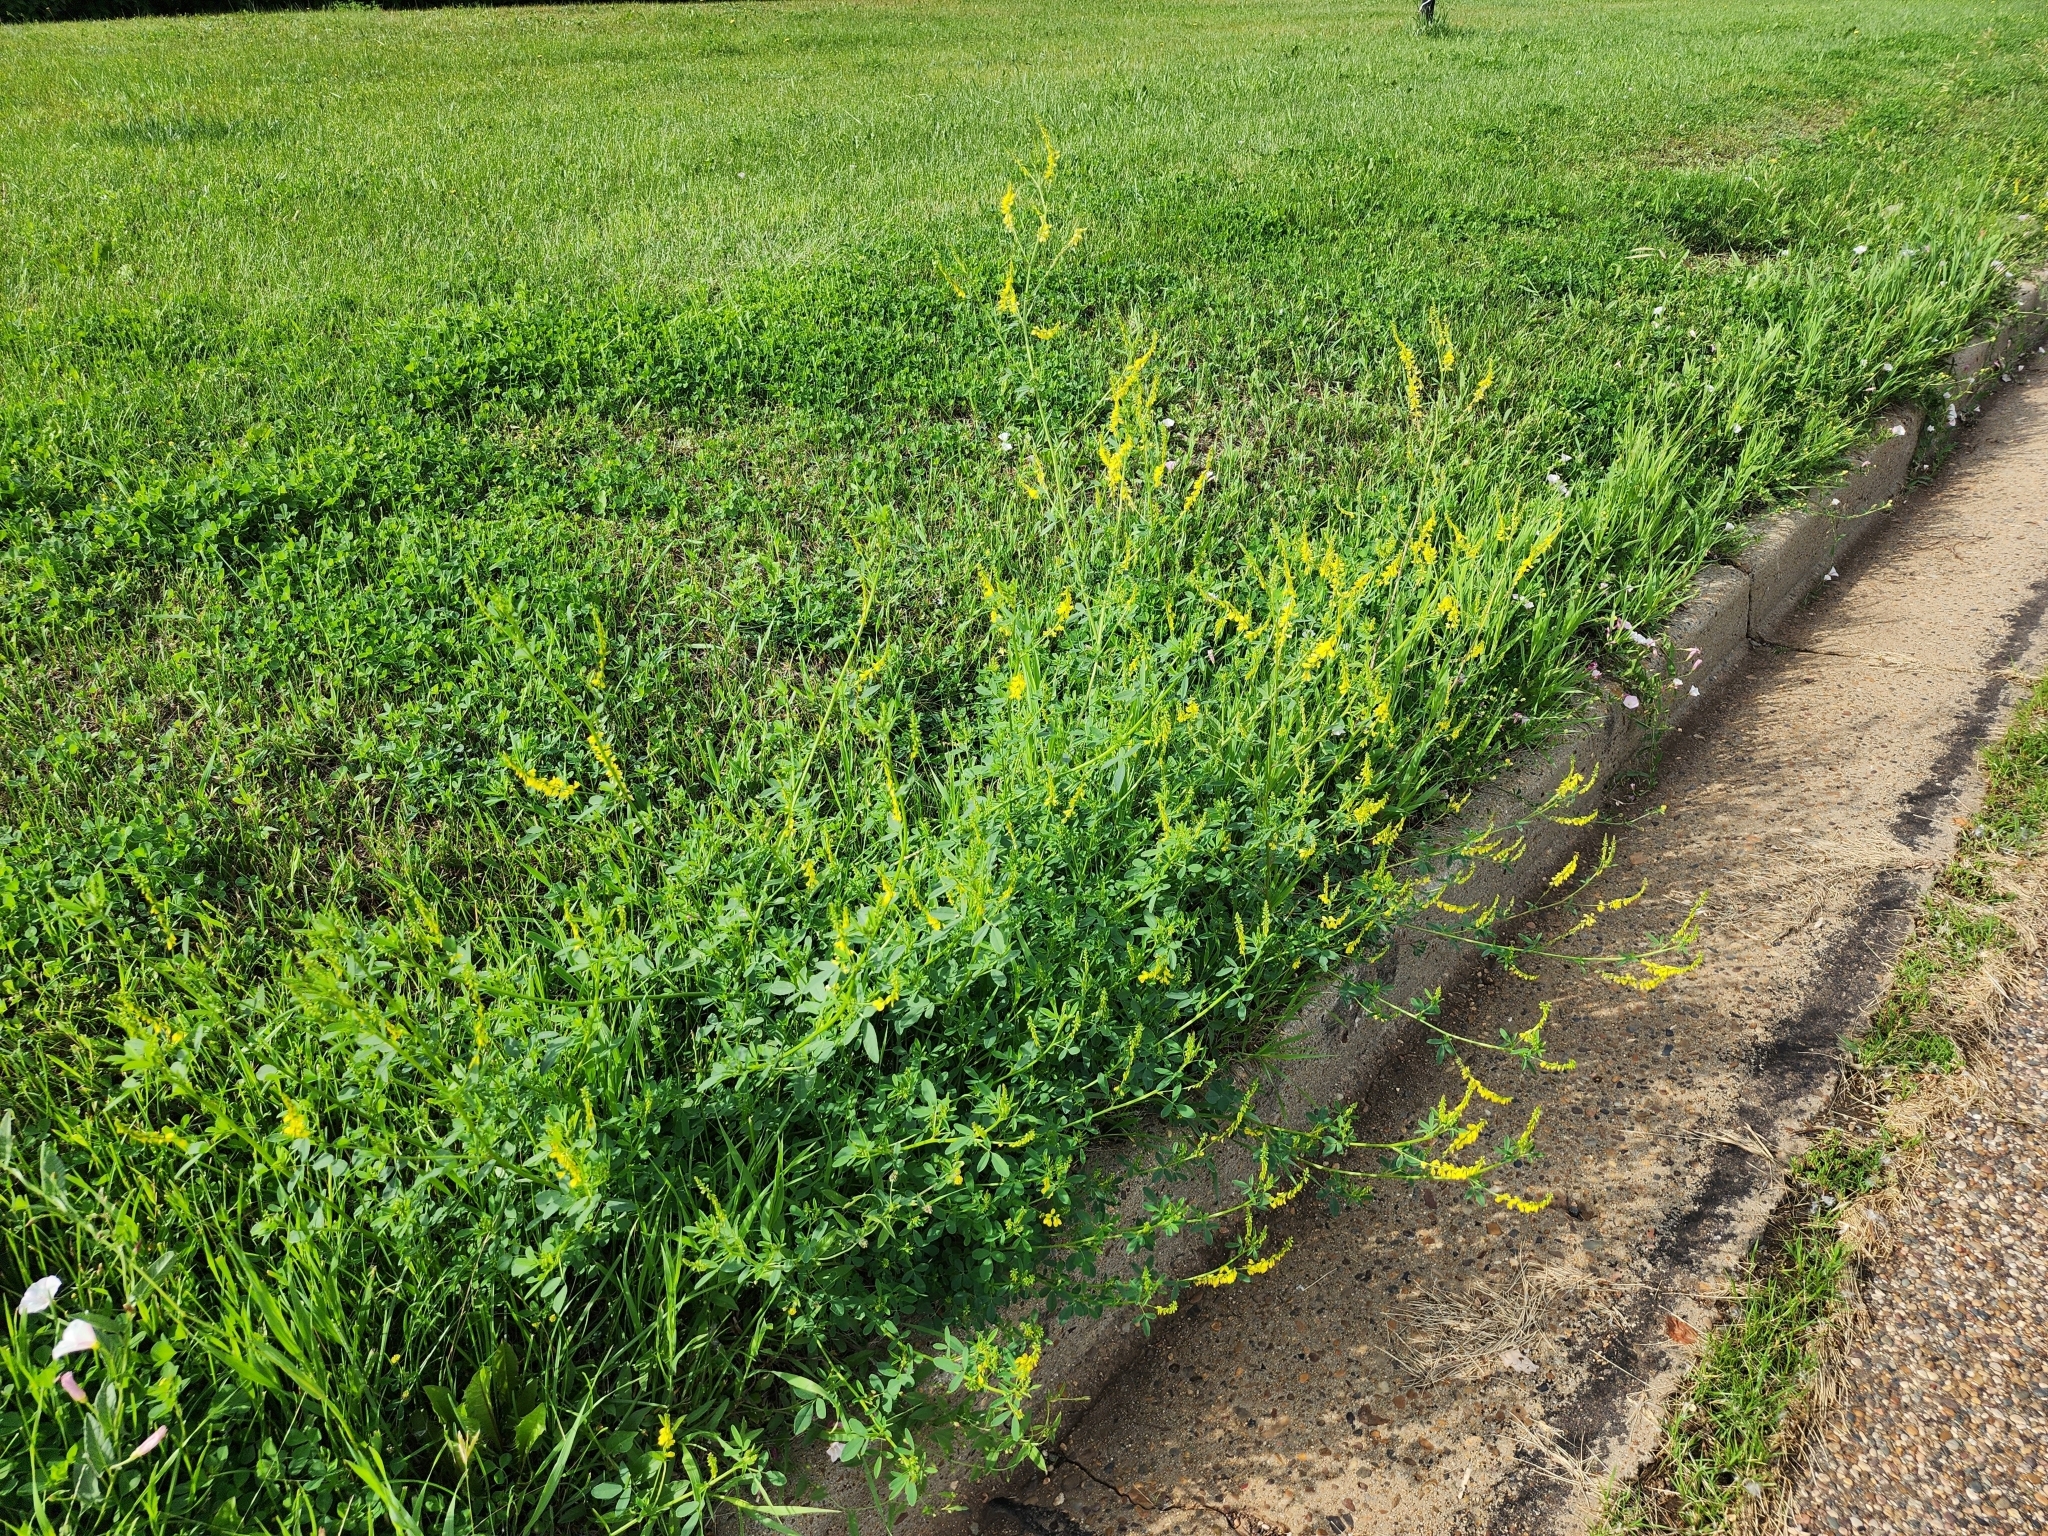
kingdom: Plantae
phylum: Tracheophyta
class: Magnoliopsida
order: Fabales
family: Fabaceae
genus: Melilotus
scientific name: Melilotus officinalis
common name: Sweetclover
